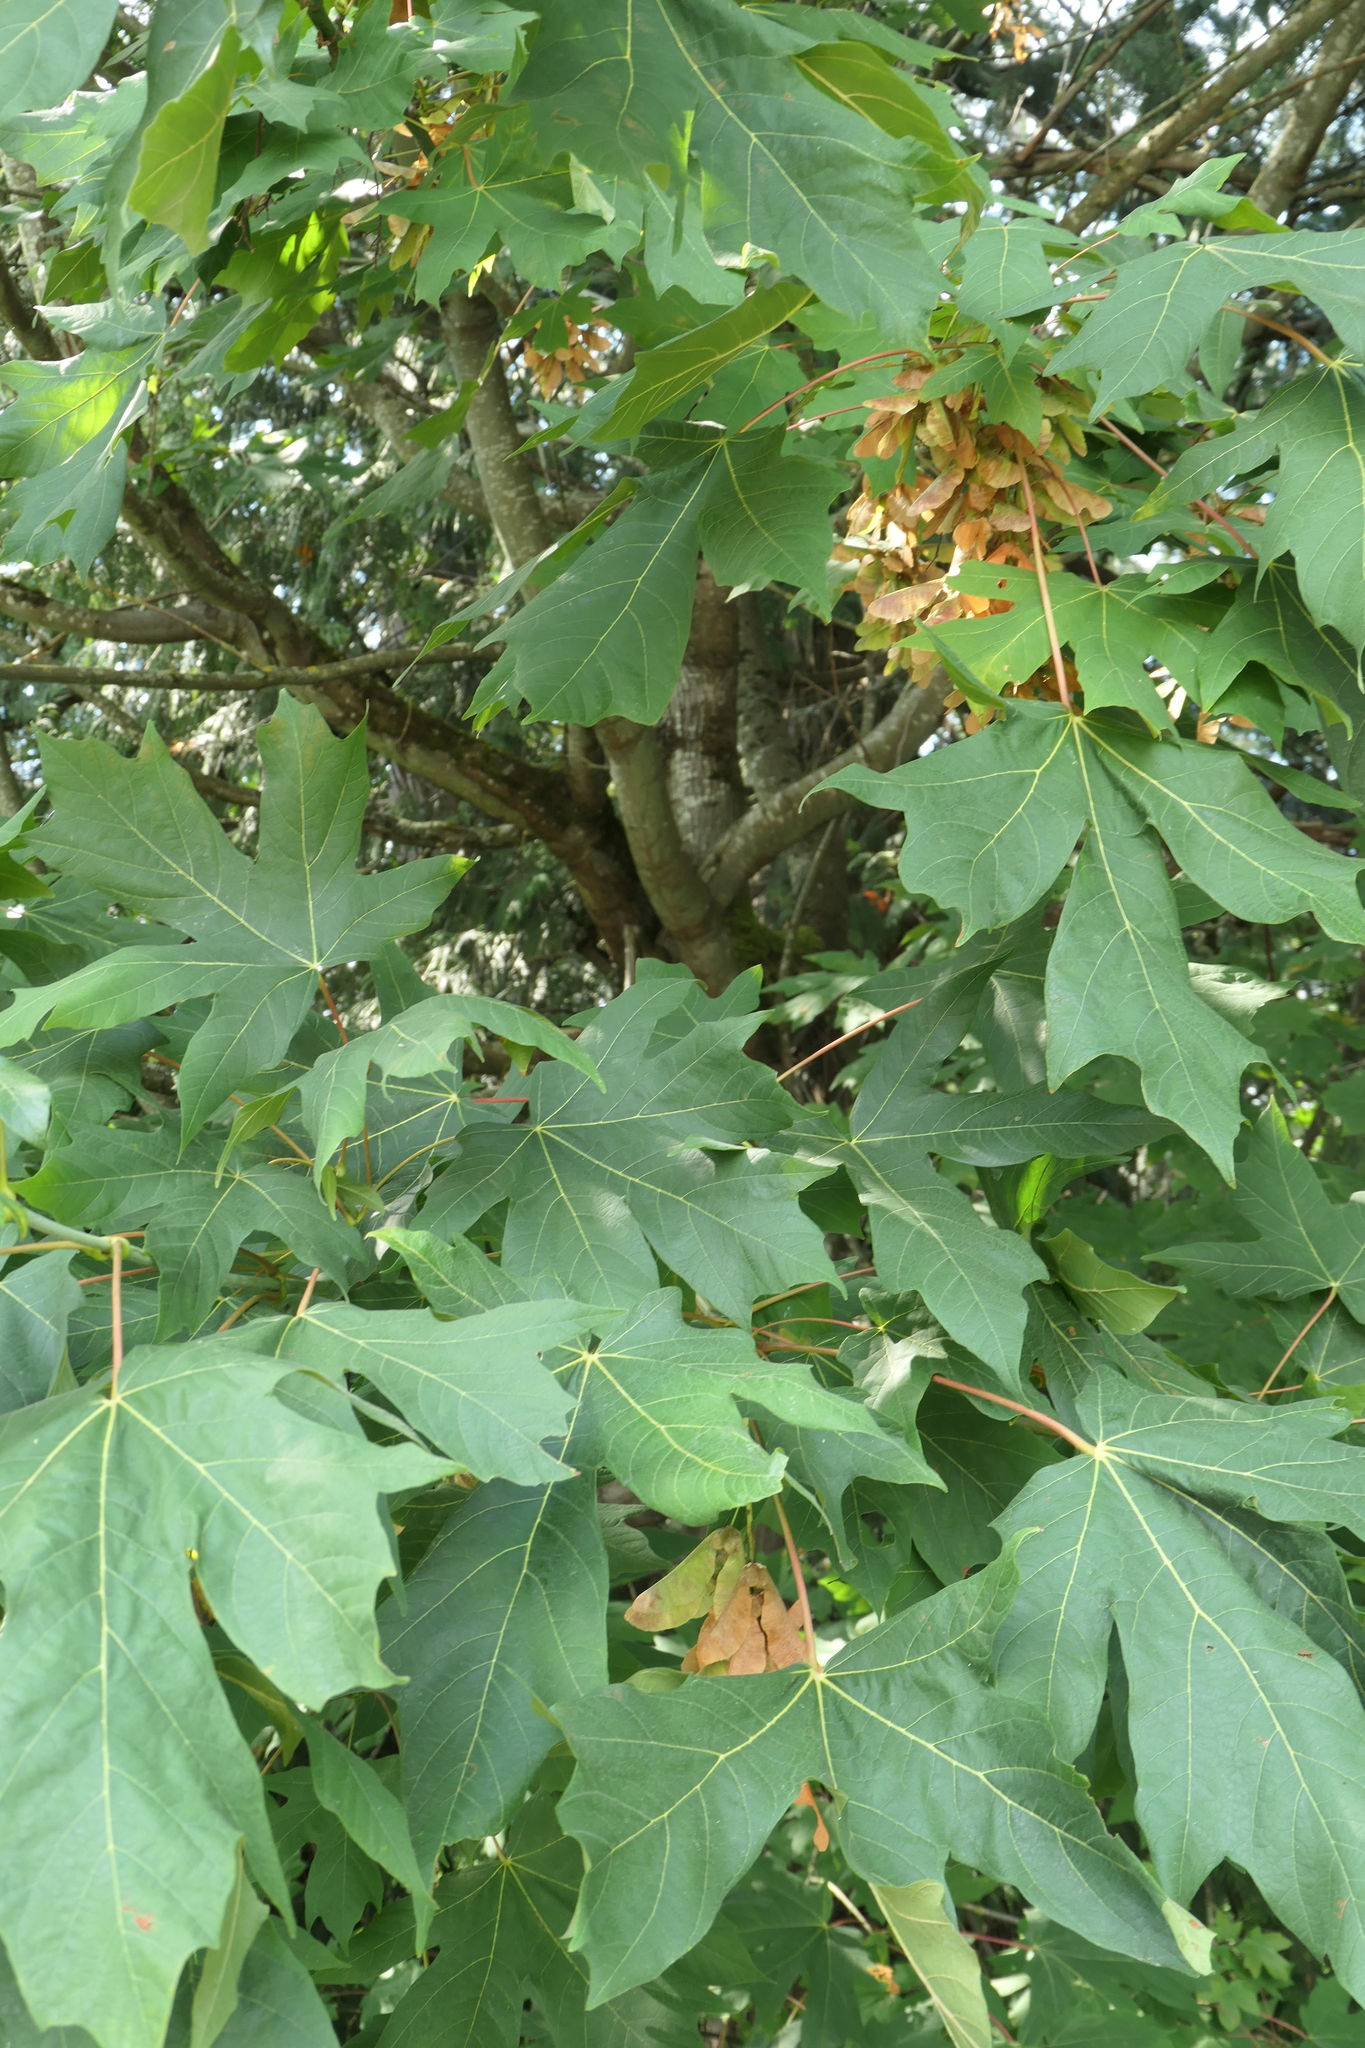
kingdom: Plantae
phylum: Tracheophyta
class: Magnoliopsida
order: Sapindales
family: Sapindaceae
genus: Acer
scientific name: Acer macrophyllum
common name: Oregon maple
